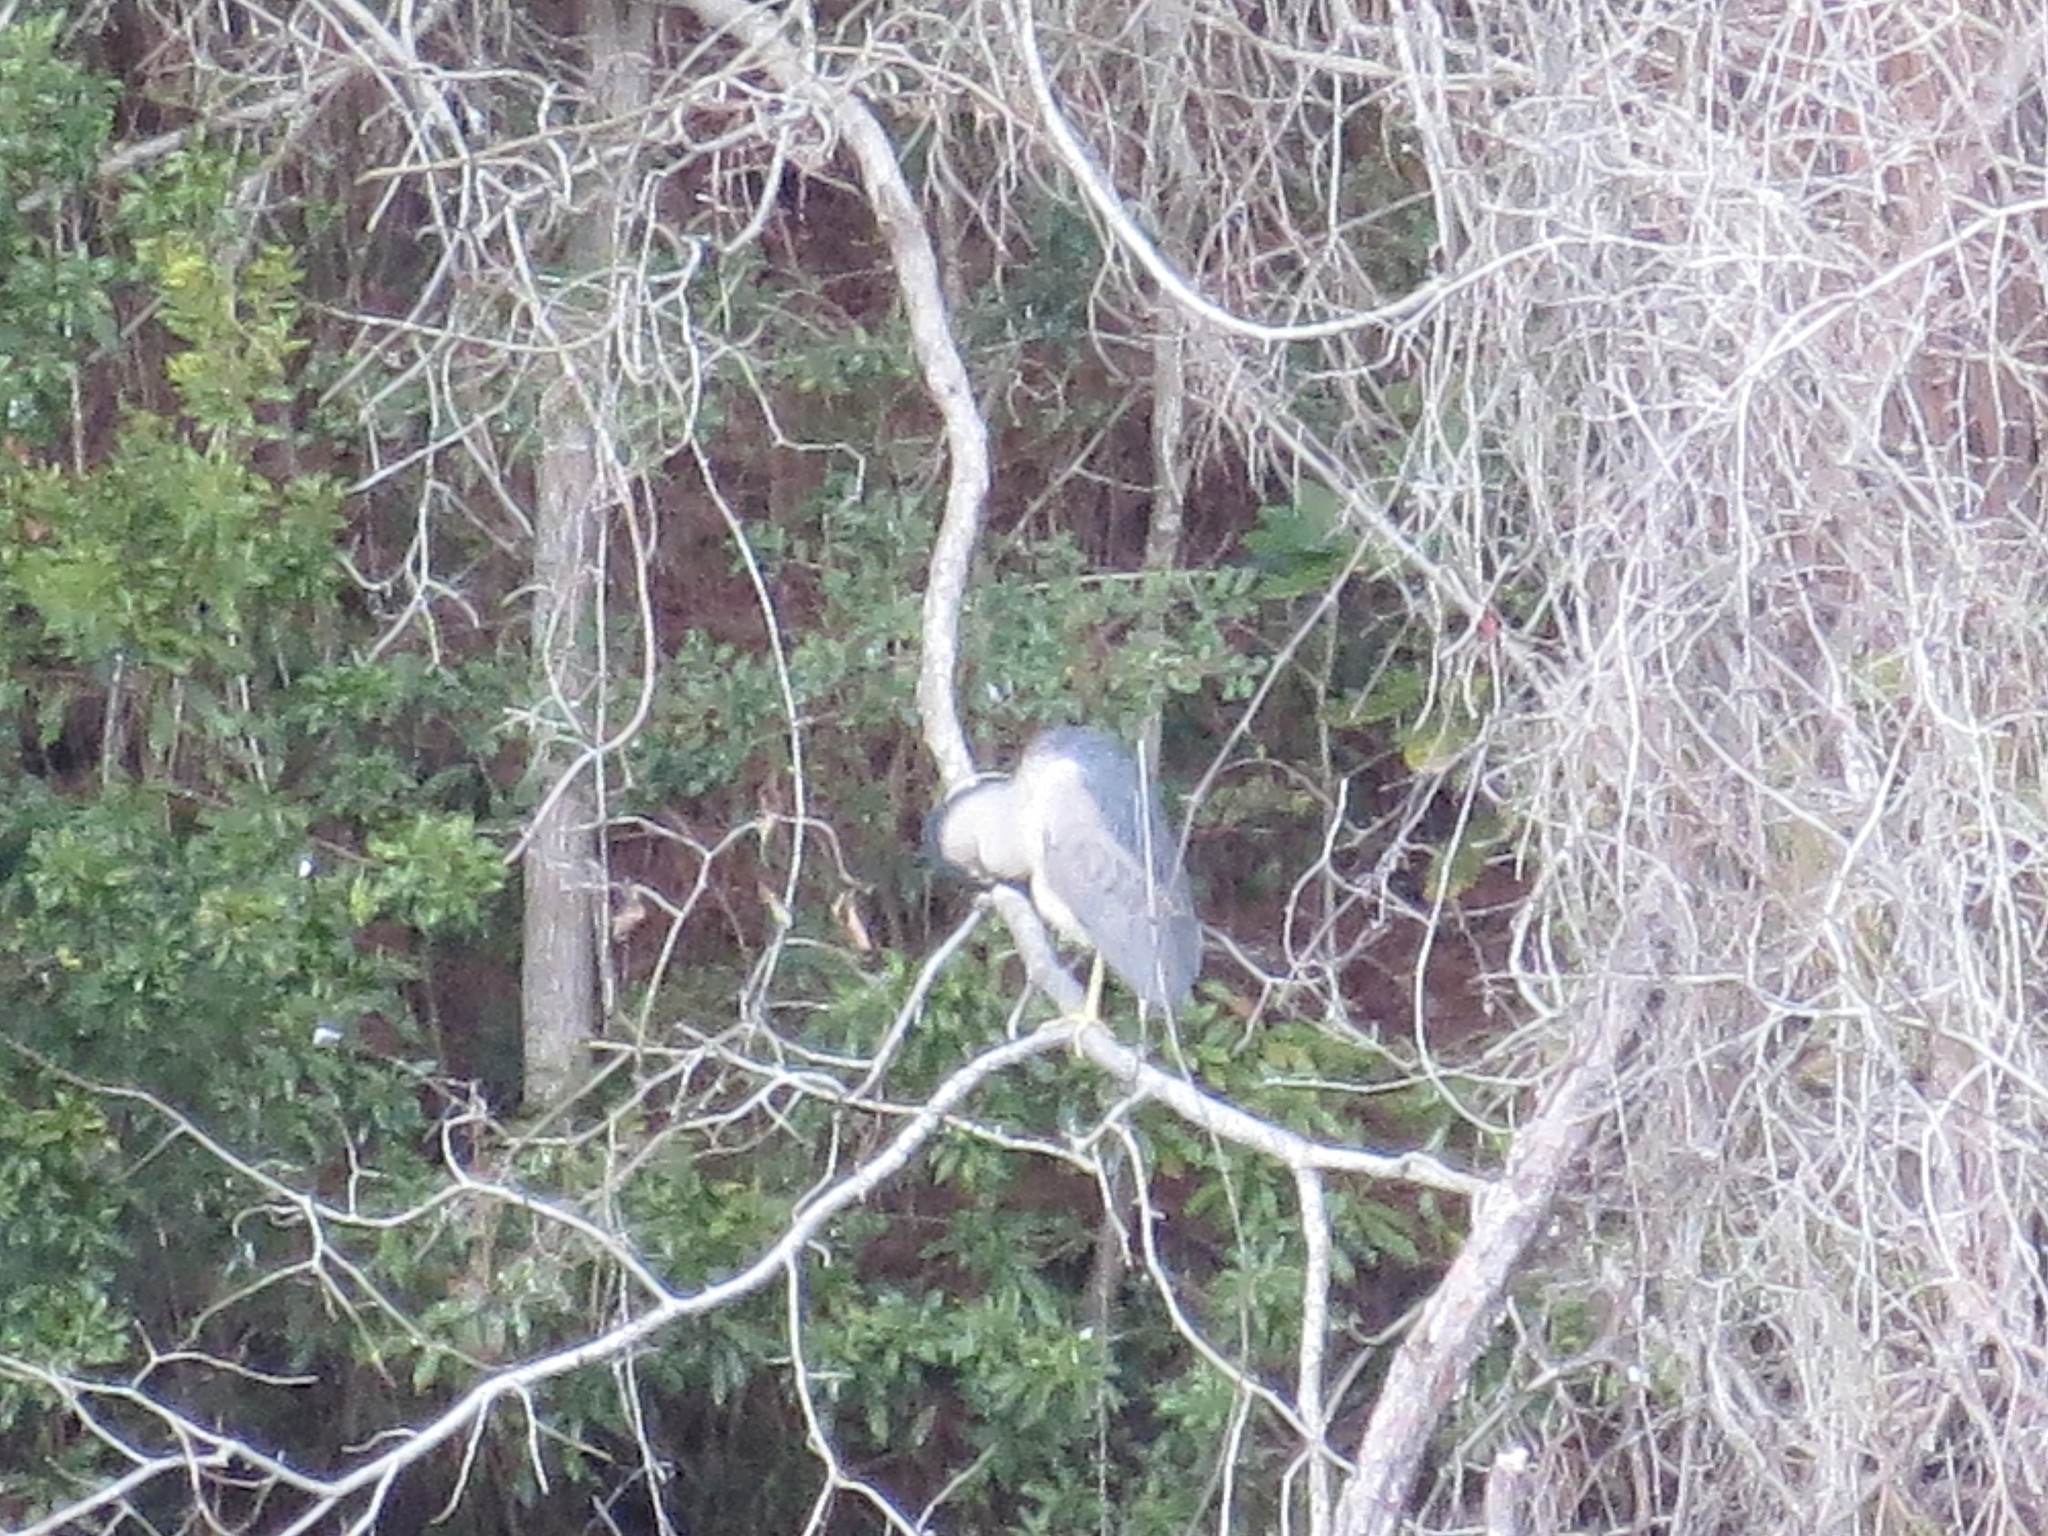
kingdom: Animalia
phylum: Chordata
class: Aves
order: Pelecaniformes
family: Ardeidae
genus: Nycticorax
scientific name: Nycticorax nycticorax
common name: Black-crowned night heron
